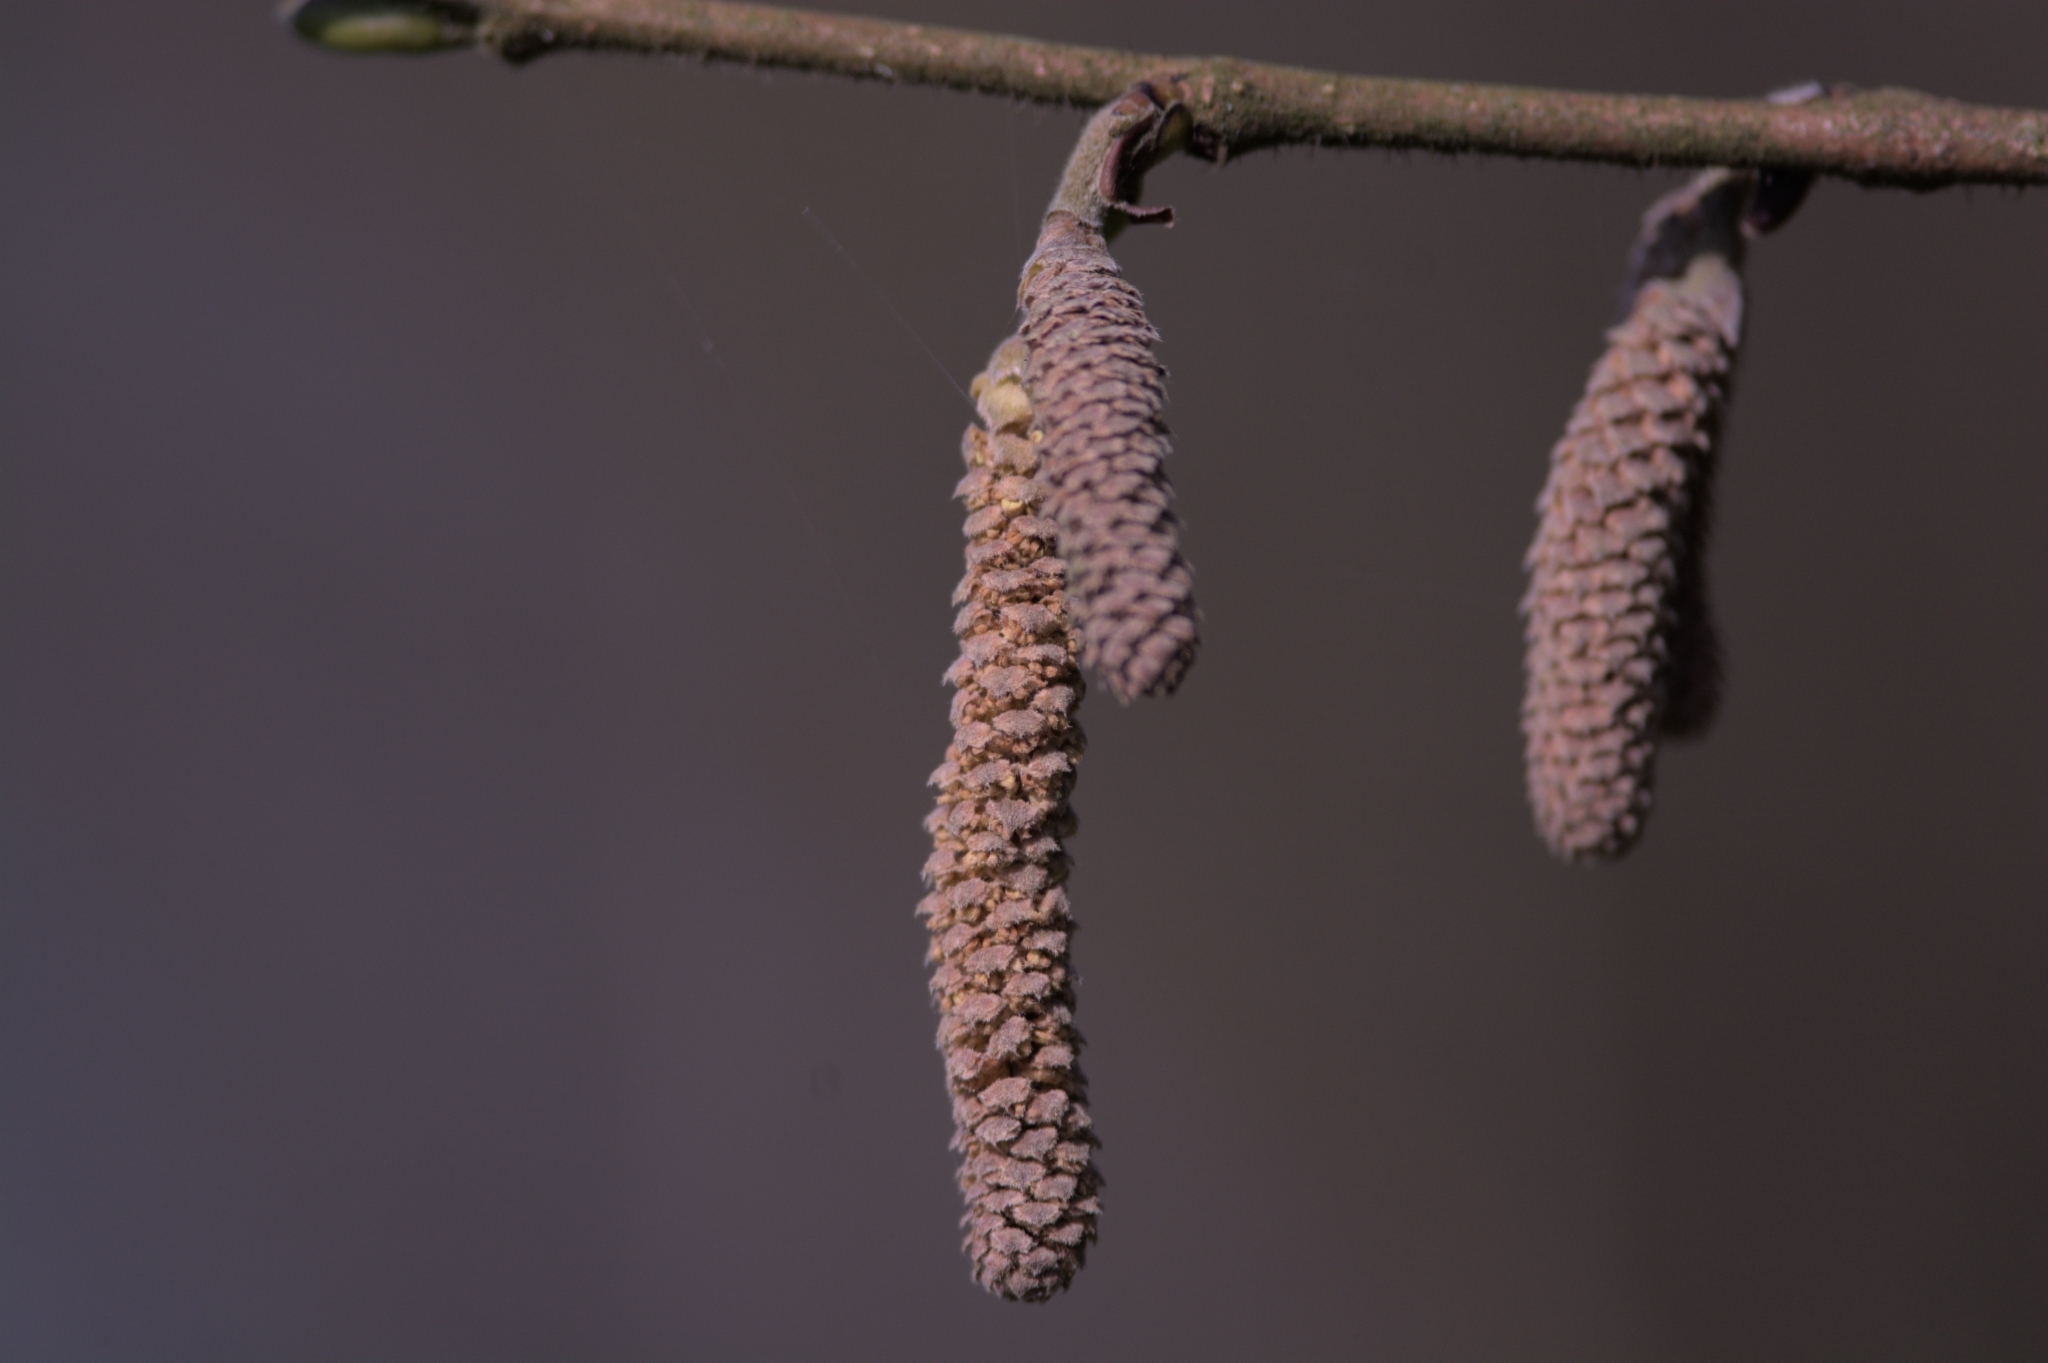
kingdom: Plantae
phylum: Tracheophyta
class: Magnoliopsida
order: Fagales
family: Betulaceae
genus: Corylus
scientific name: Corylus avellana
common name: European hazel
